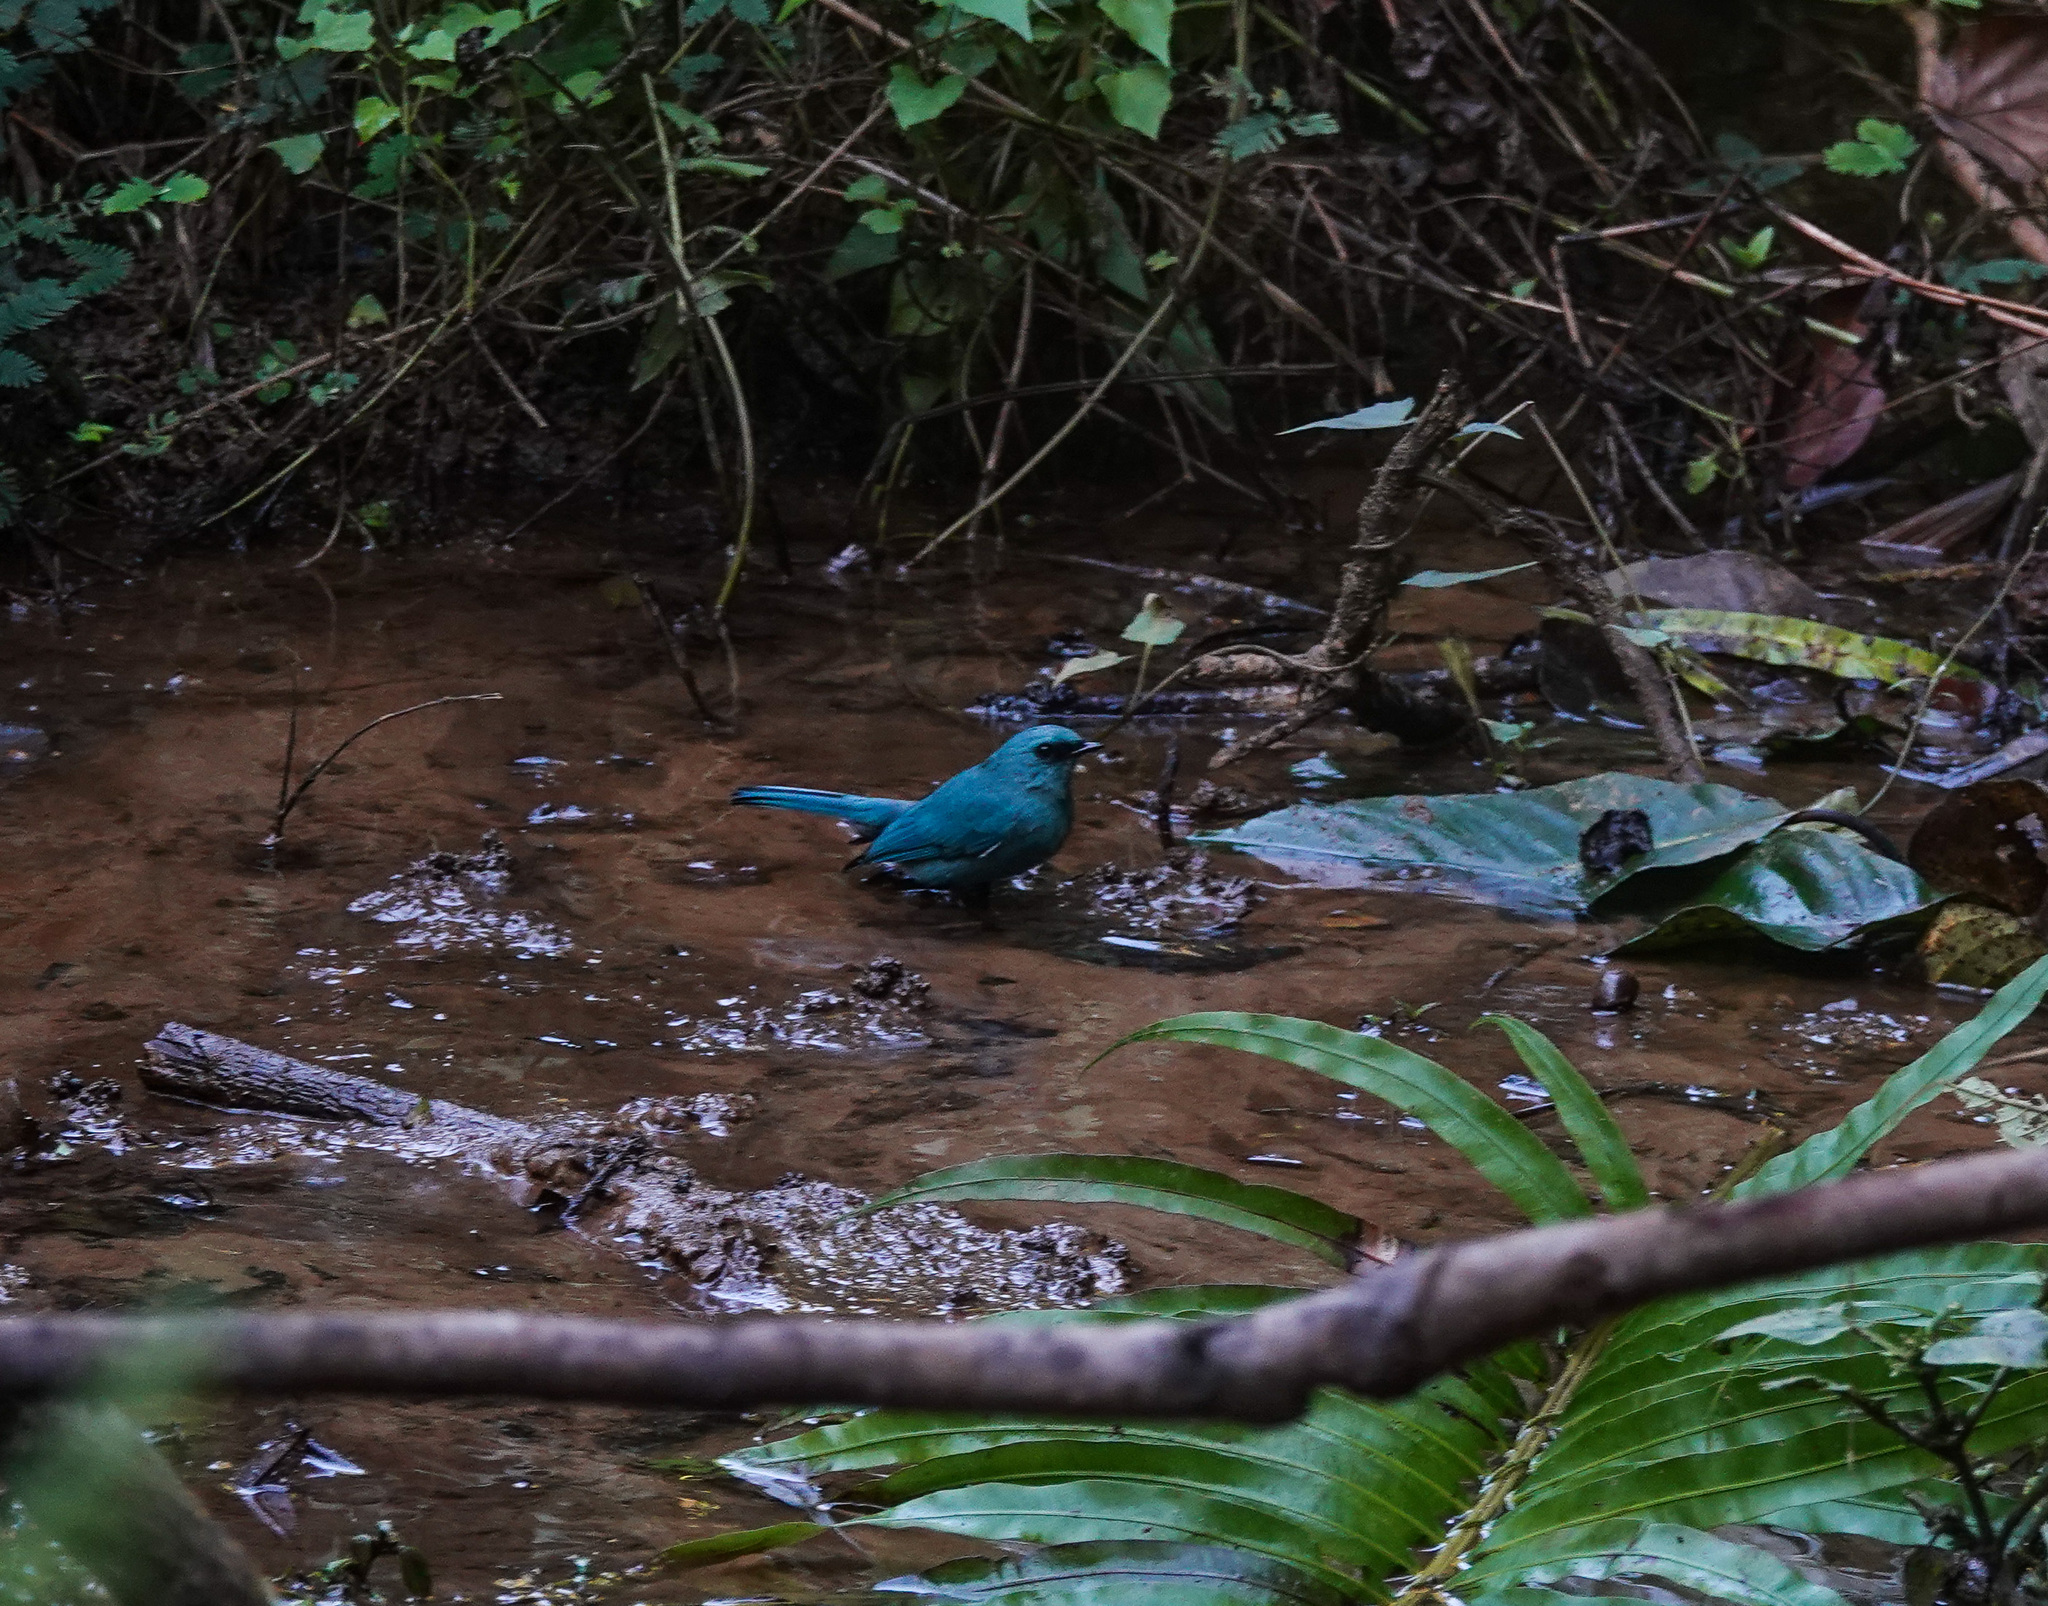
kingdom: Animalia
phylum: Chordata
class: Aves
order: Passeriformes
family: Muscicapidae
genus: Eumyias
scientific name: Eumyias thalassinus
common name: Verditer flycatcher
